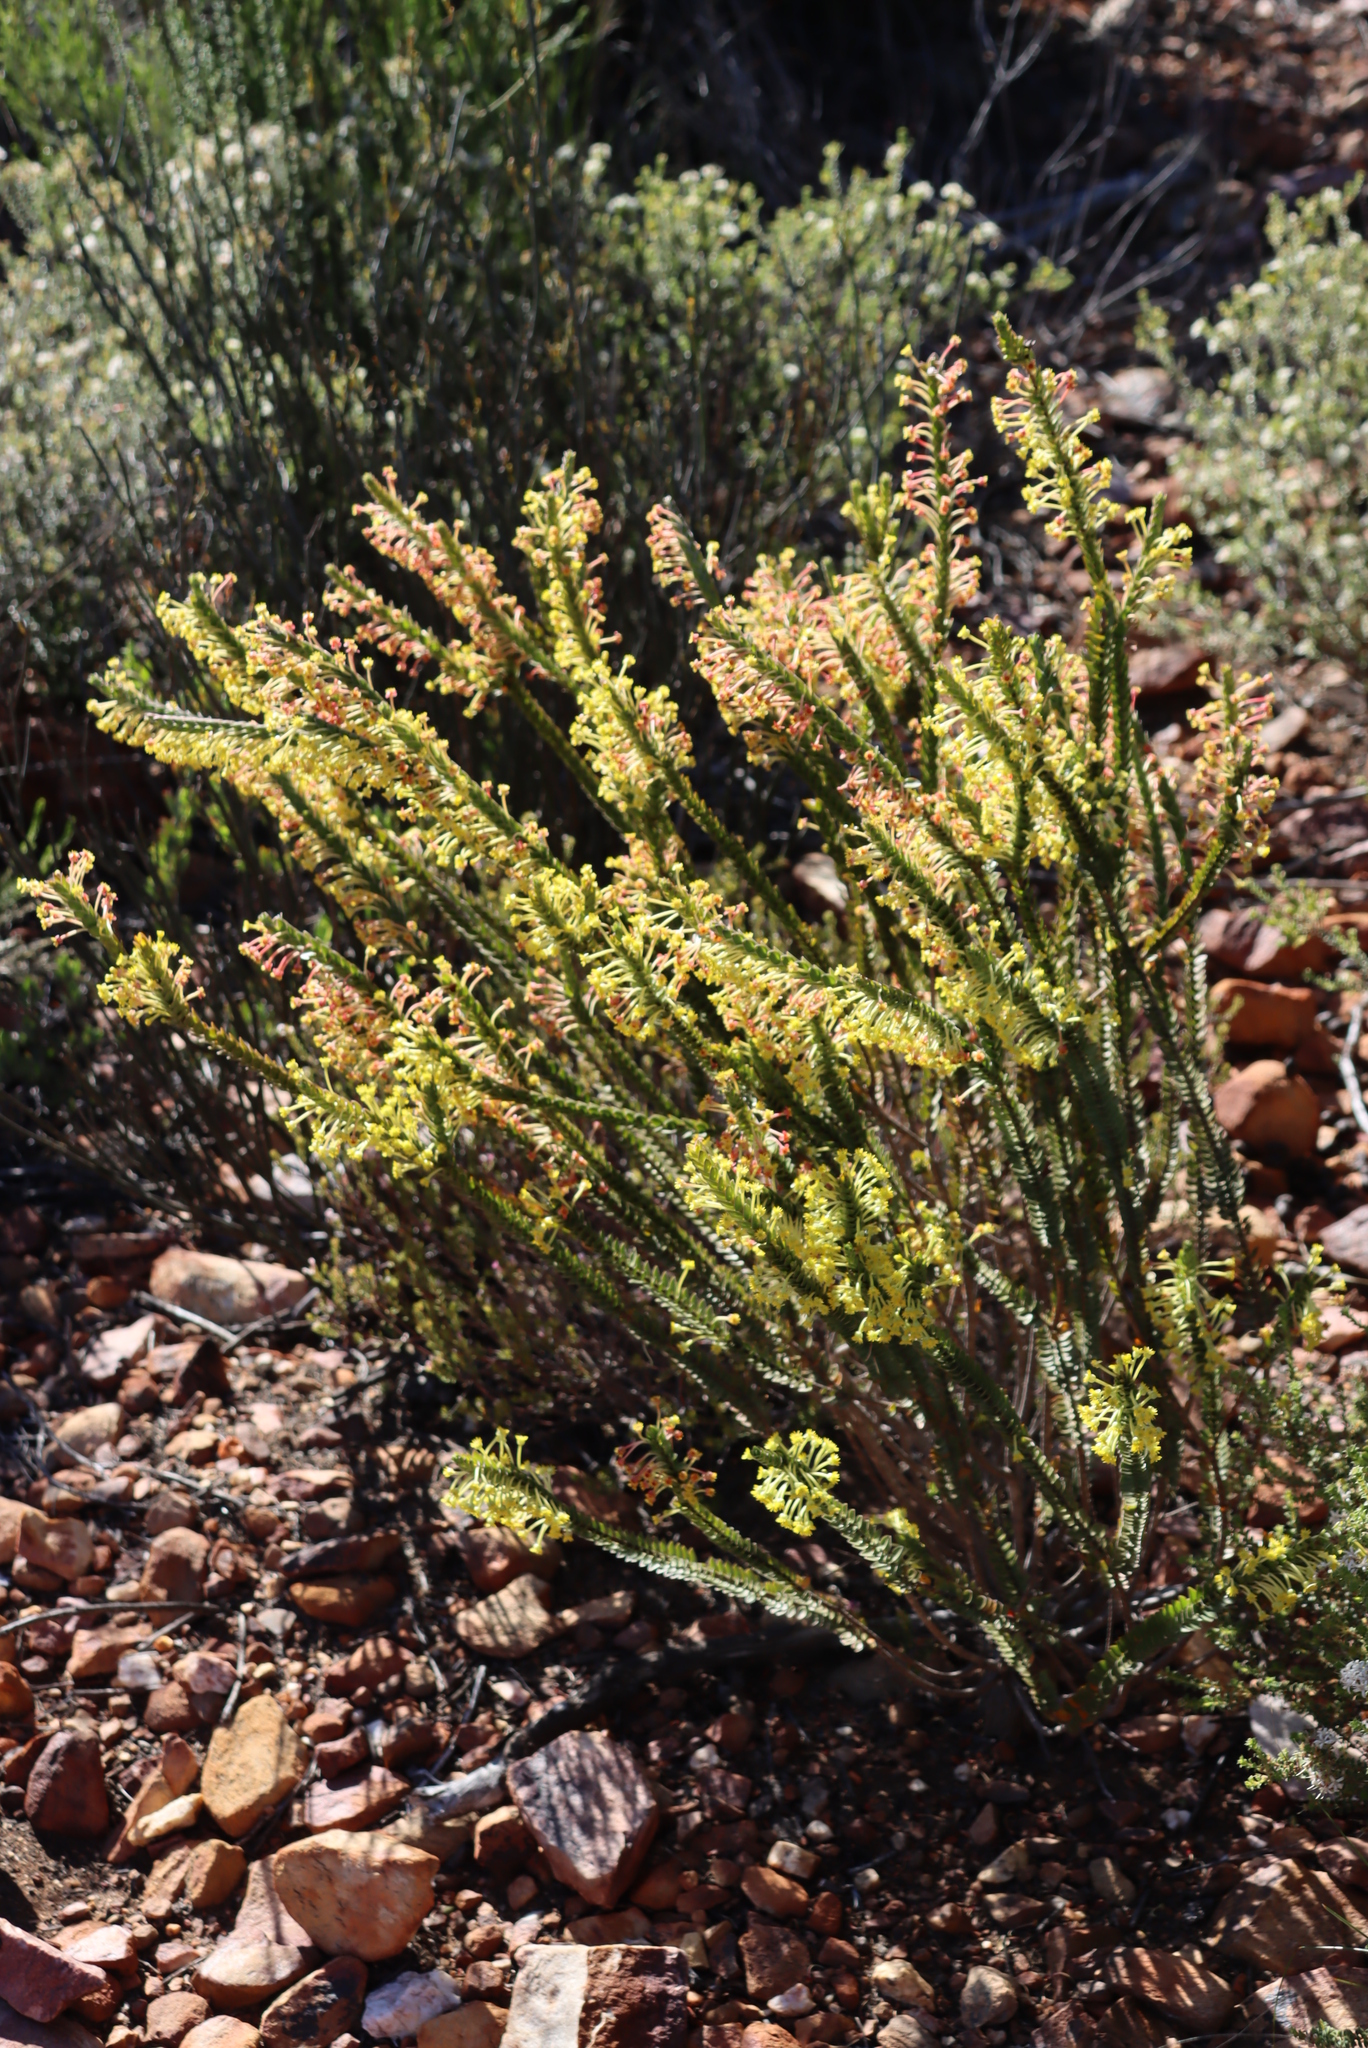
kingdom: Plantae
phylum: Tracheophyta
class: Magnoliopsida
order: Malvales
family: Thymelaeaceae
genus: Struthiola
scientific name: Struthiola argentea
